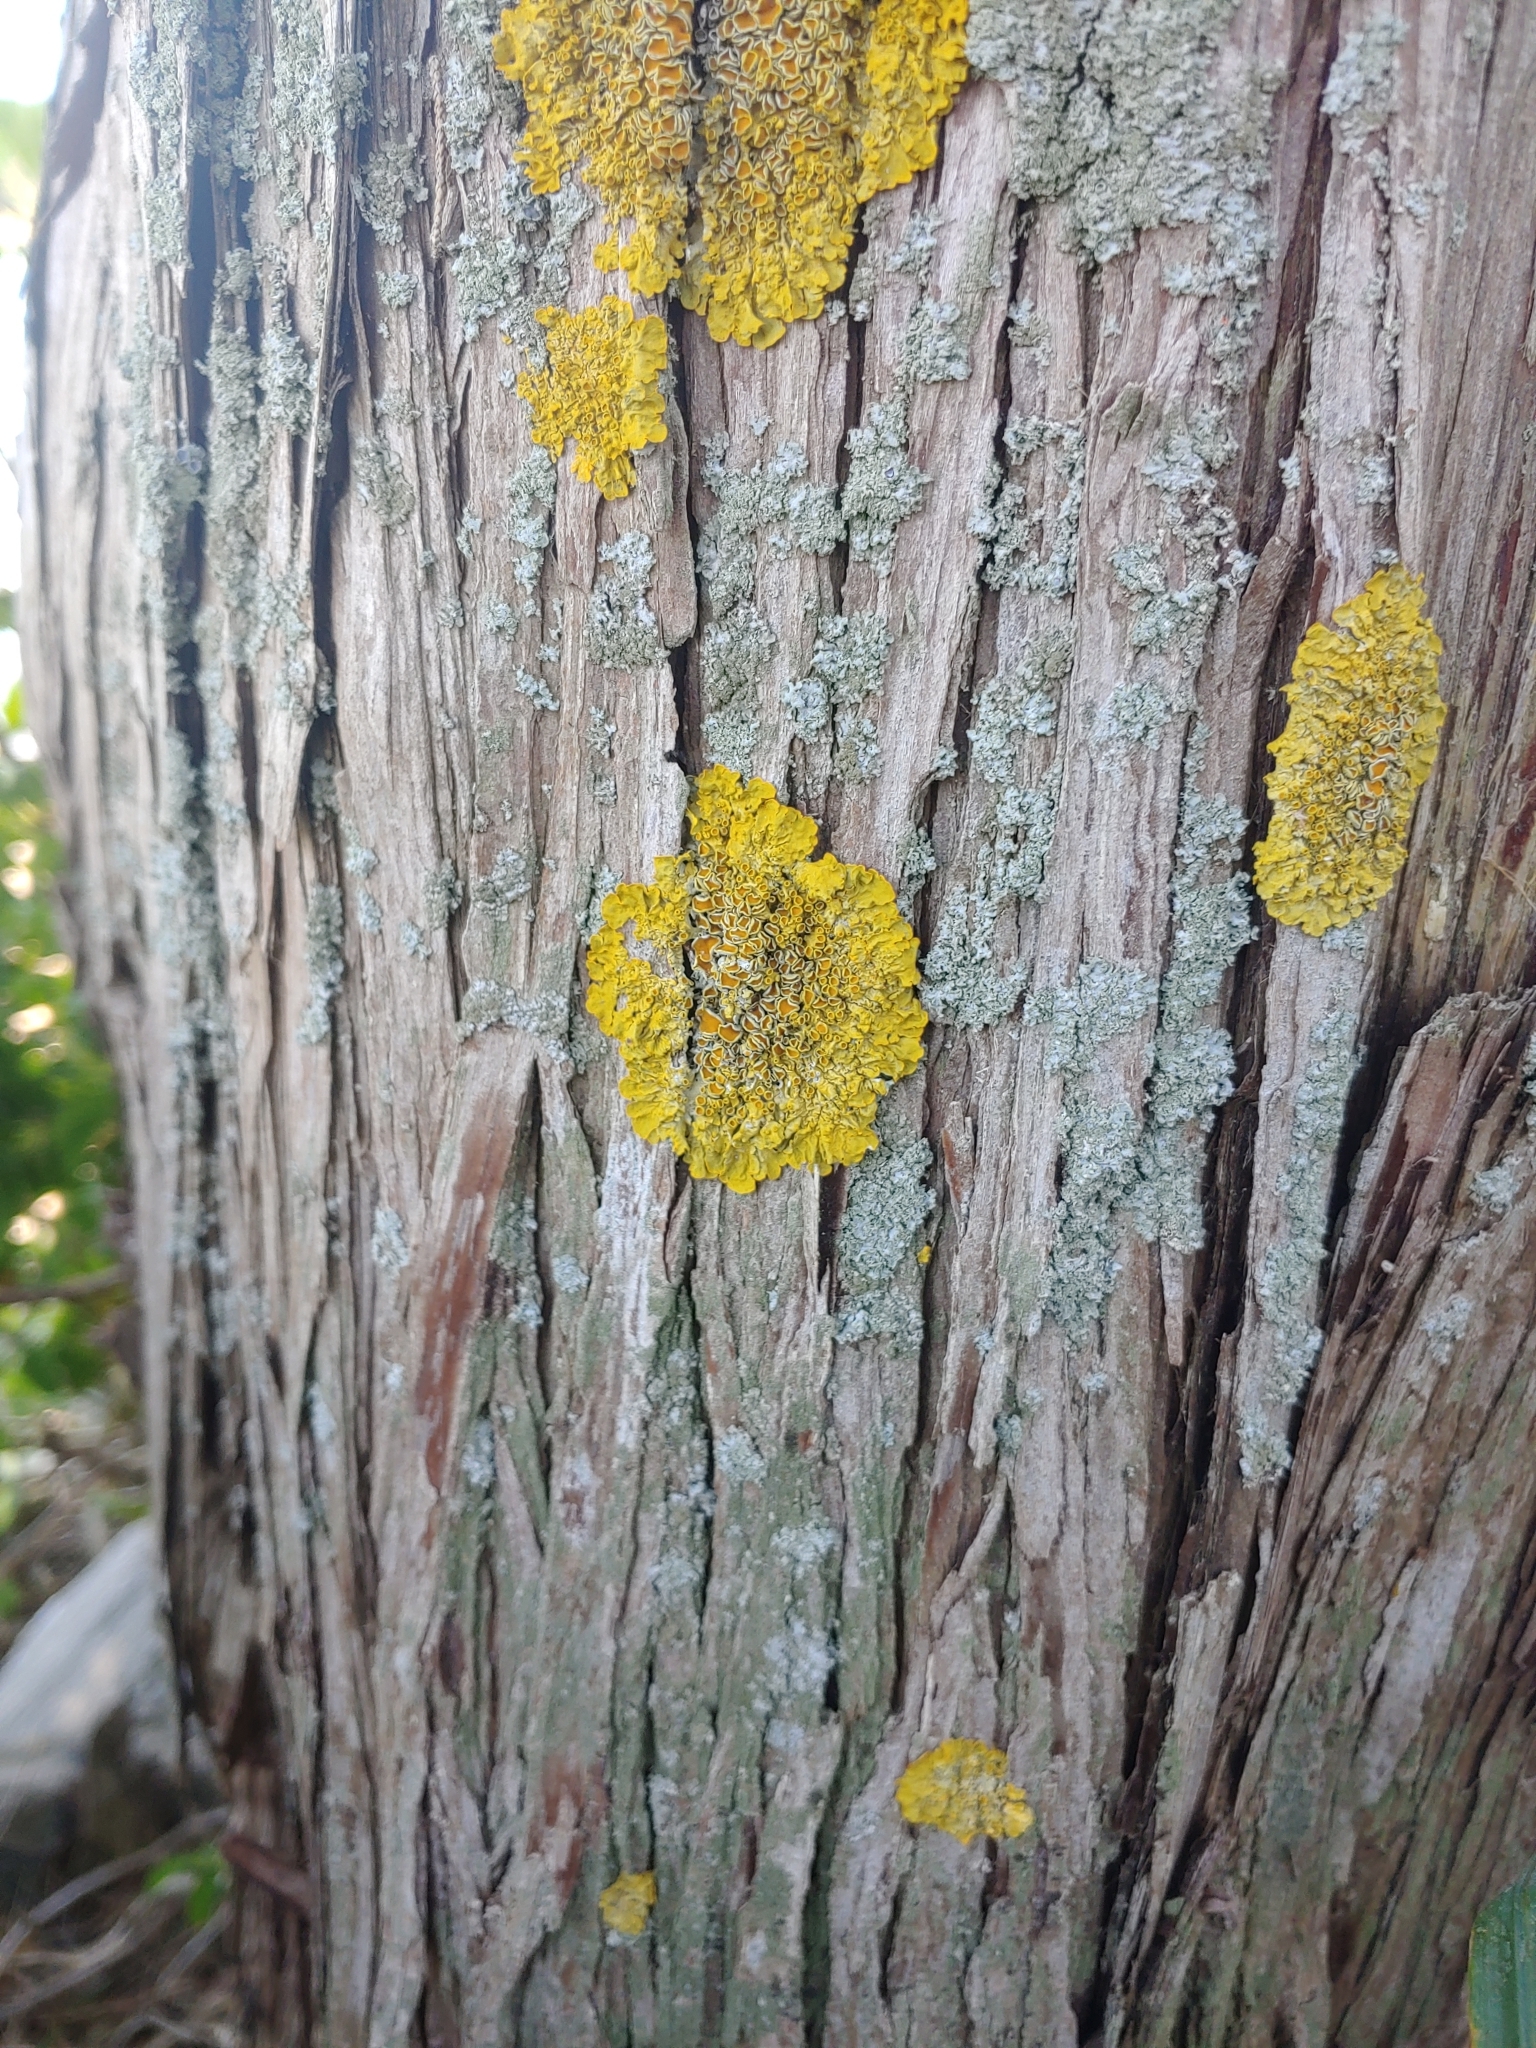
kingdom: Fungi
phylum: Ascomycota
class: Lecanoromycetes
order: Teloschistales
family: Teloschistaceae
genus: Xanthoria
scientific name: Xanthoria parietina
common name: Common orange lichen
